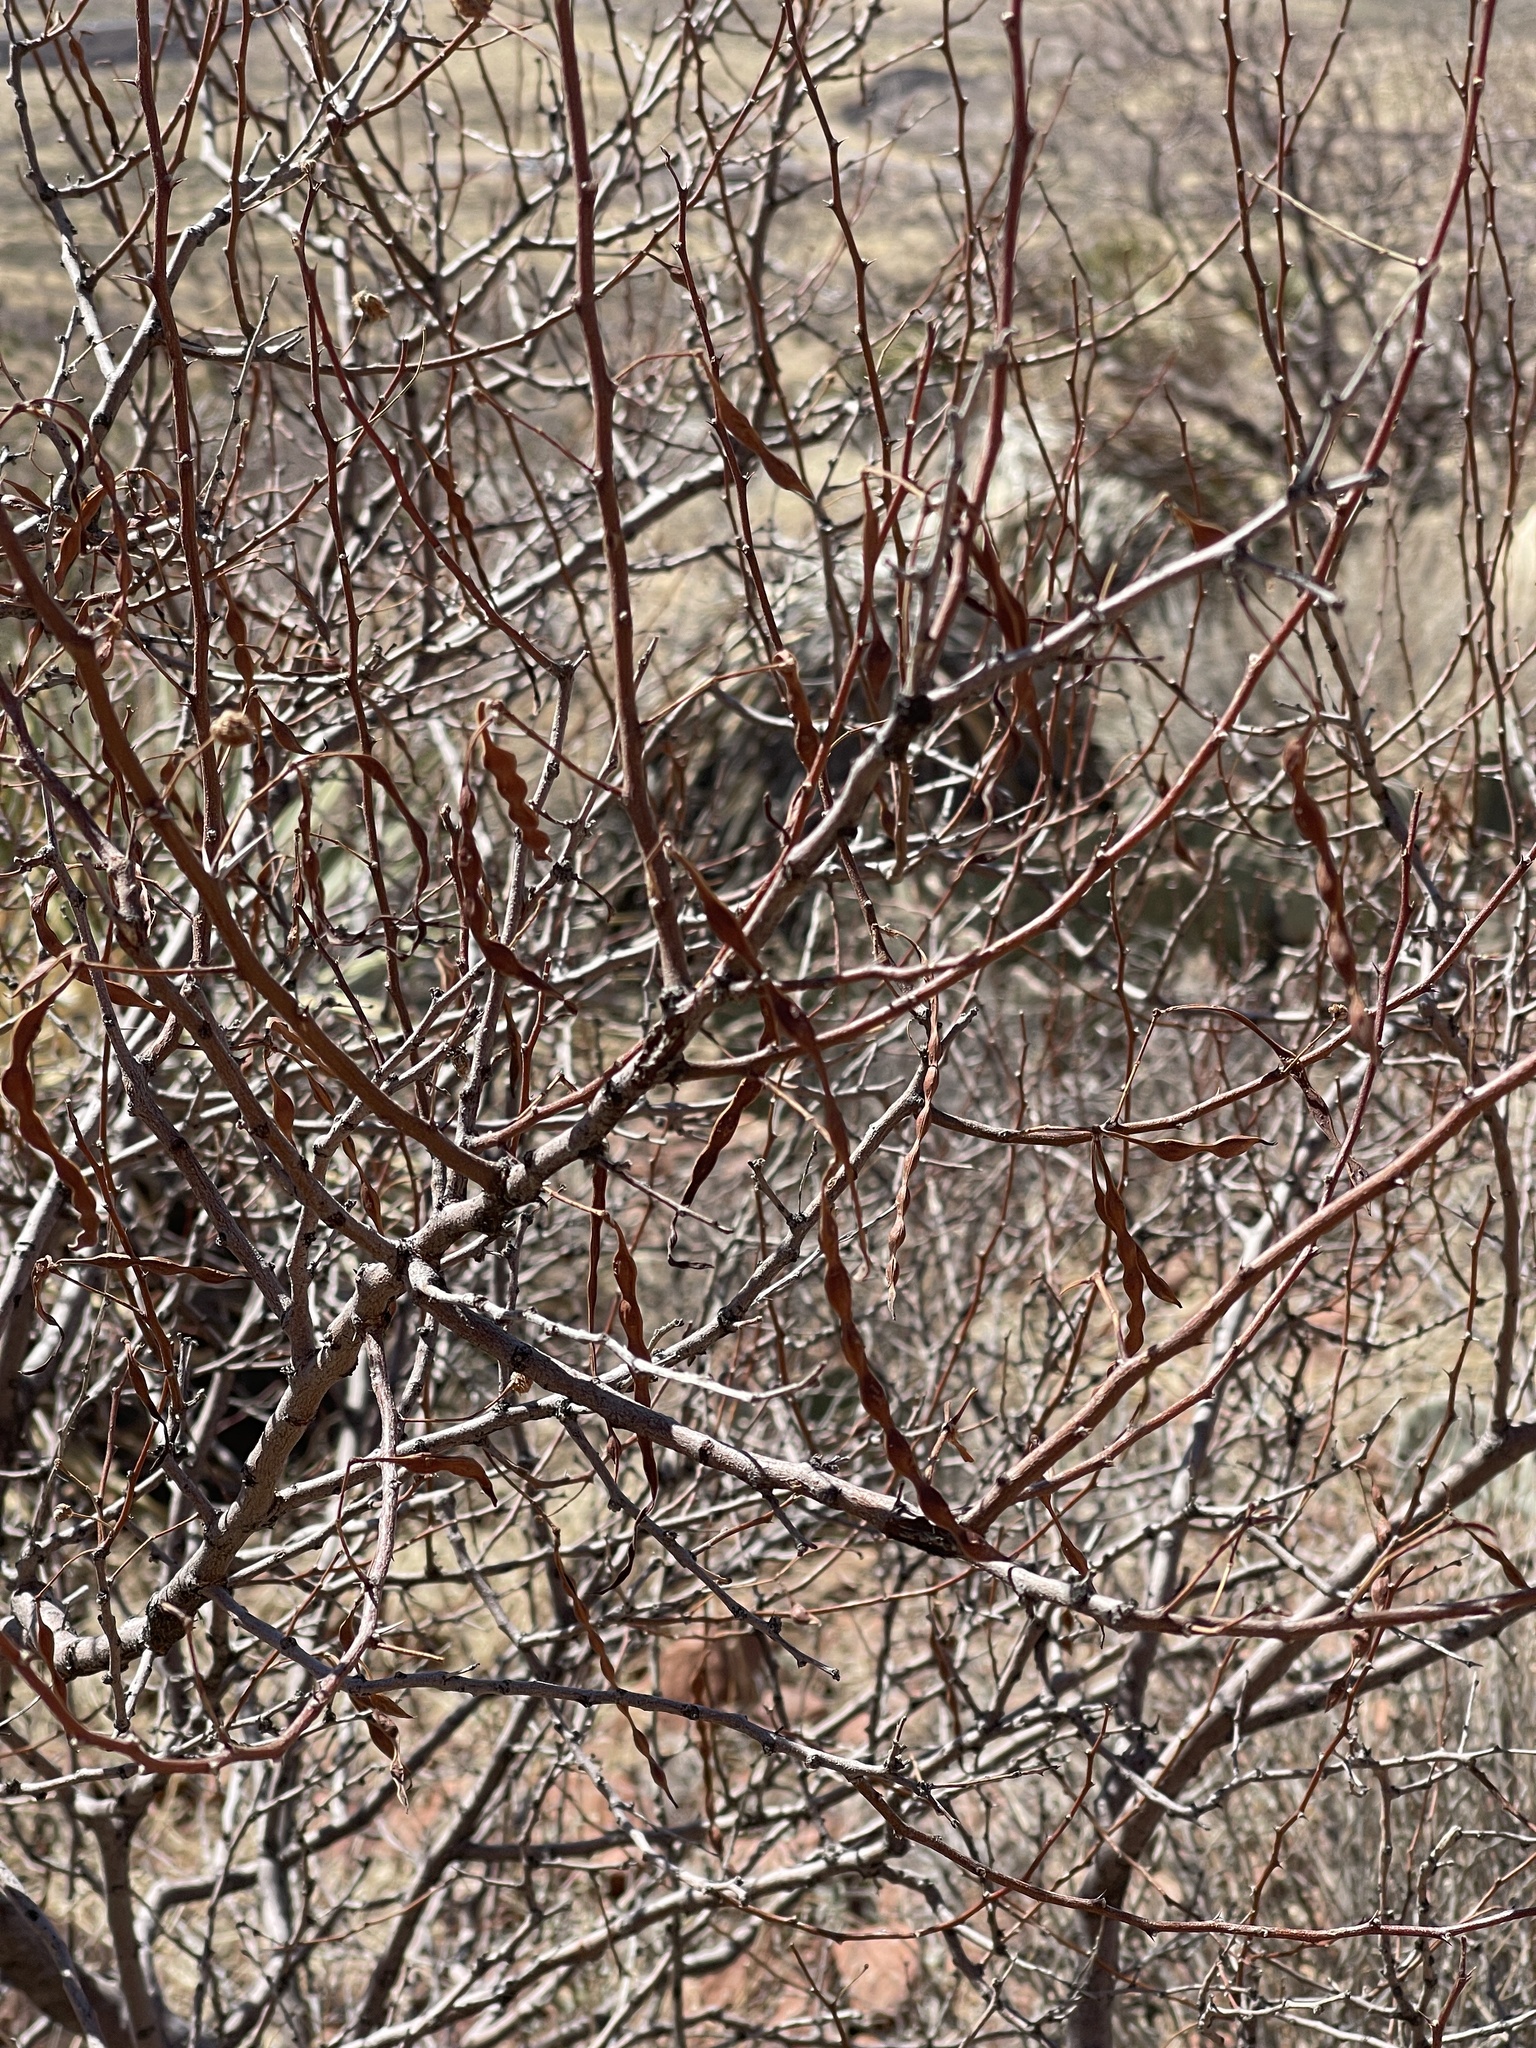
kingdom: Plantae
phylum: Tracheophyta
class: Magnoliopsida
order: Fabales
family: Fabaceae
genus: Vachellia
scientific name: Vachellia constricta
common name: Mescat acacia
